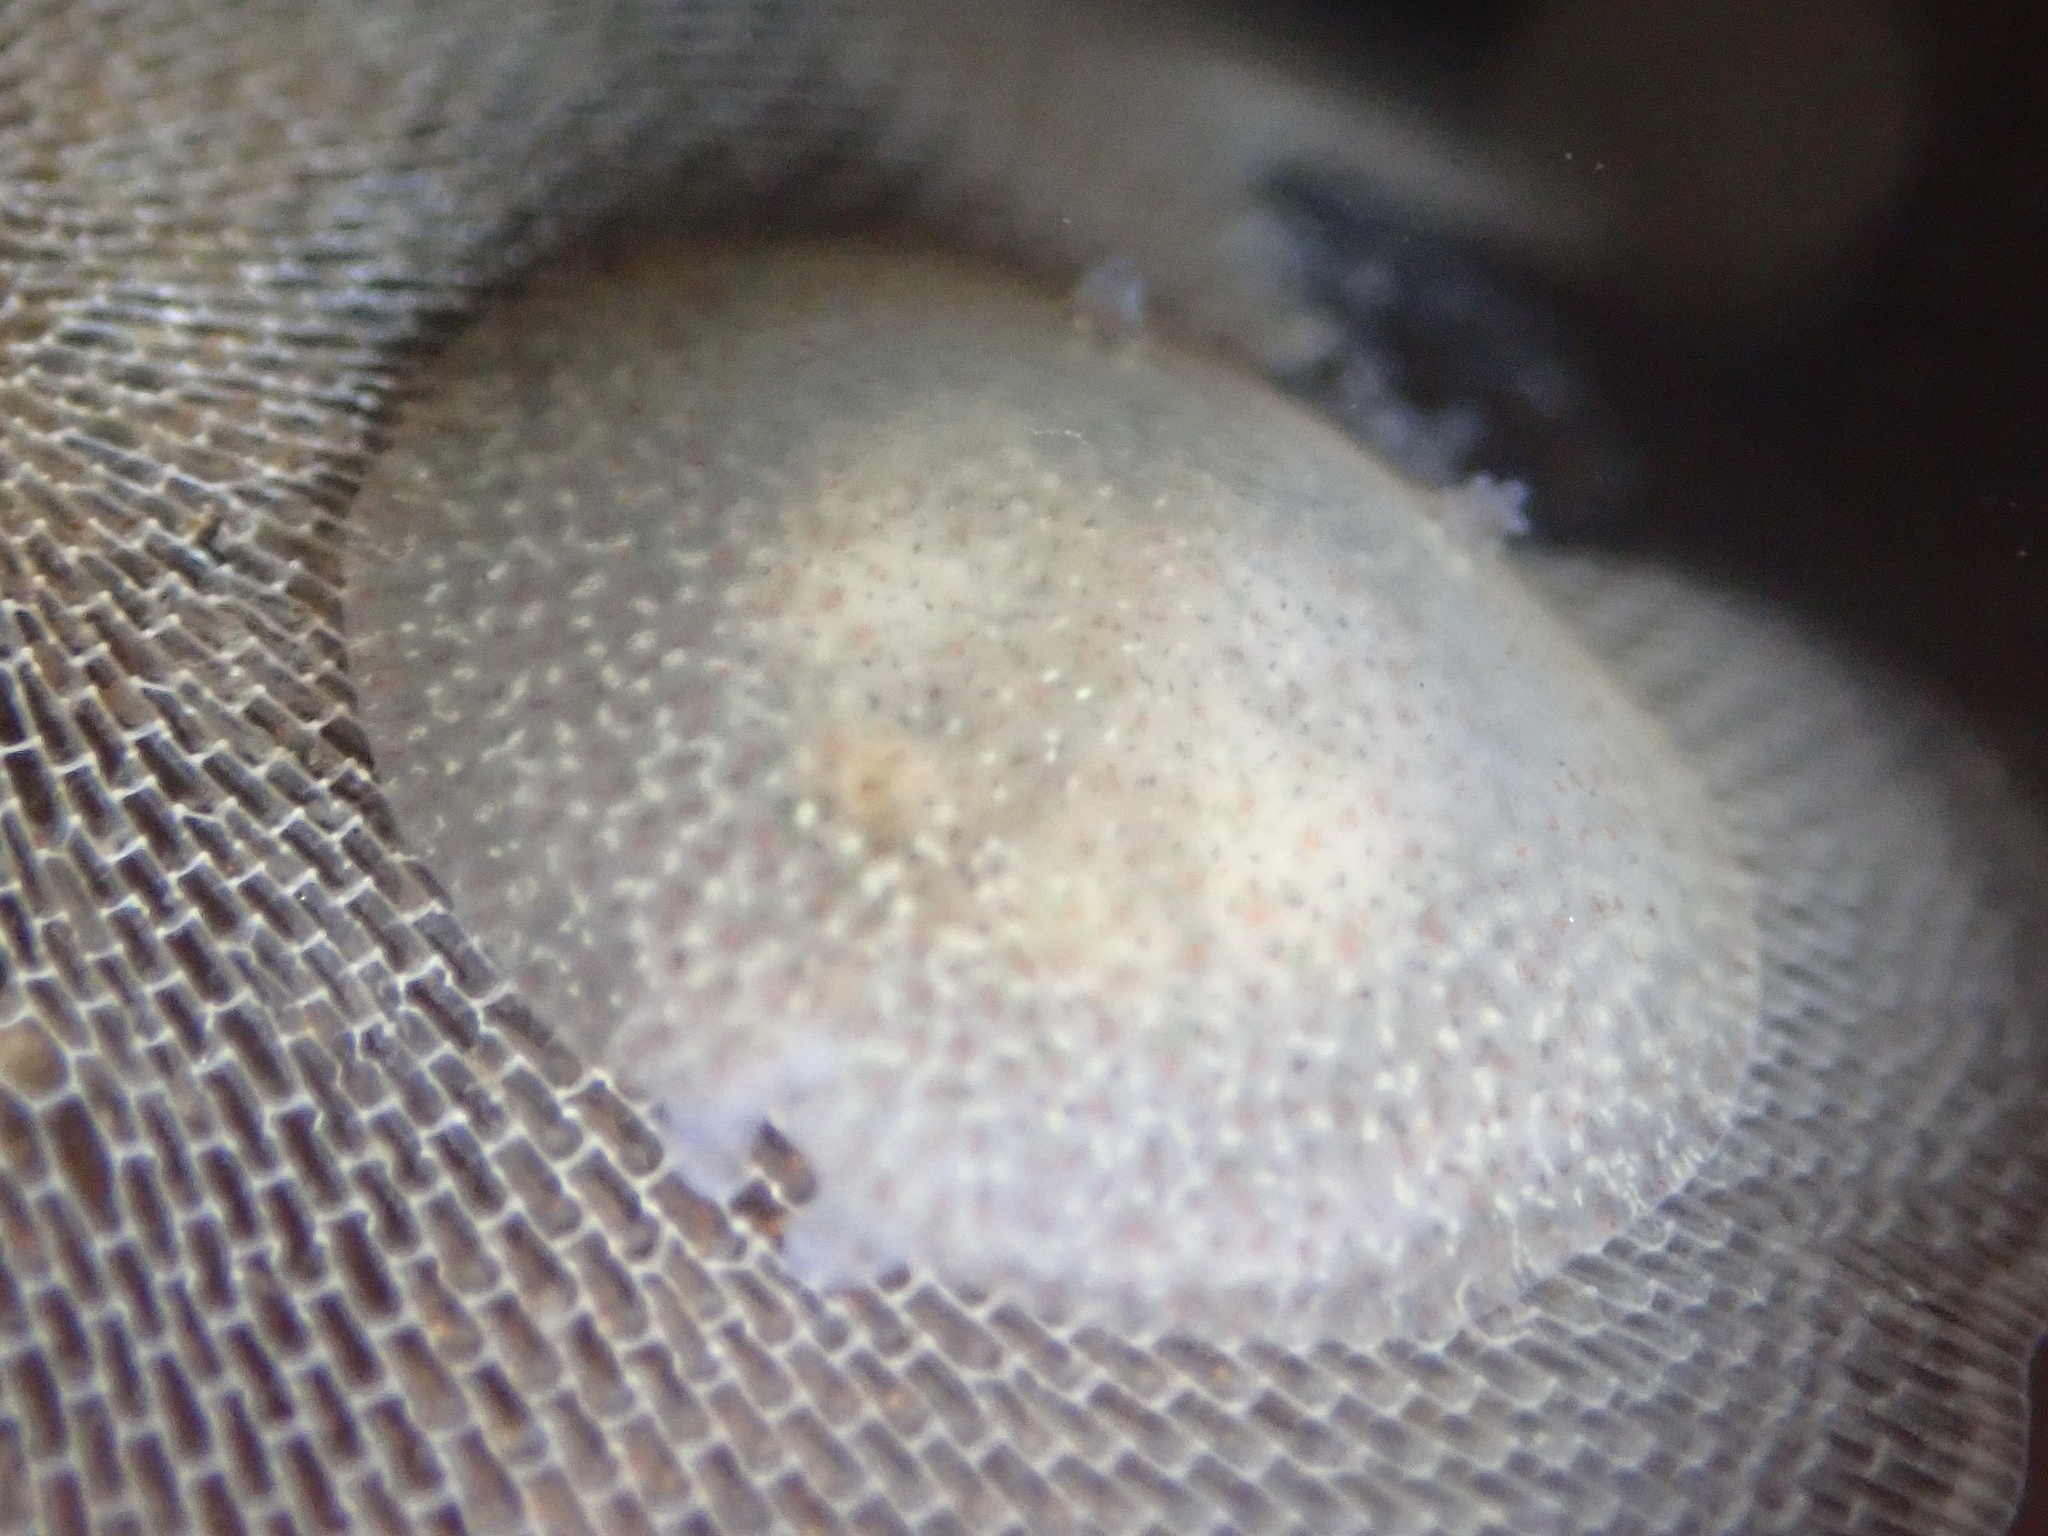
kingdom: Animalia
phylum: Mollusca
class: Gastropoda
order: Nudibranchia
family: Corambidae
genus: Corambe
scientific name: Corambe pacifica
